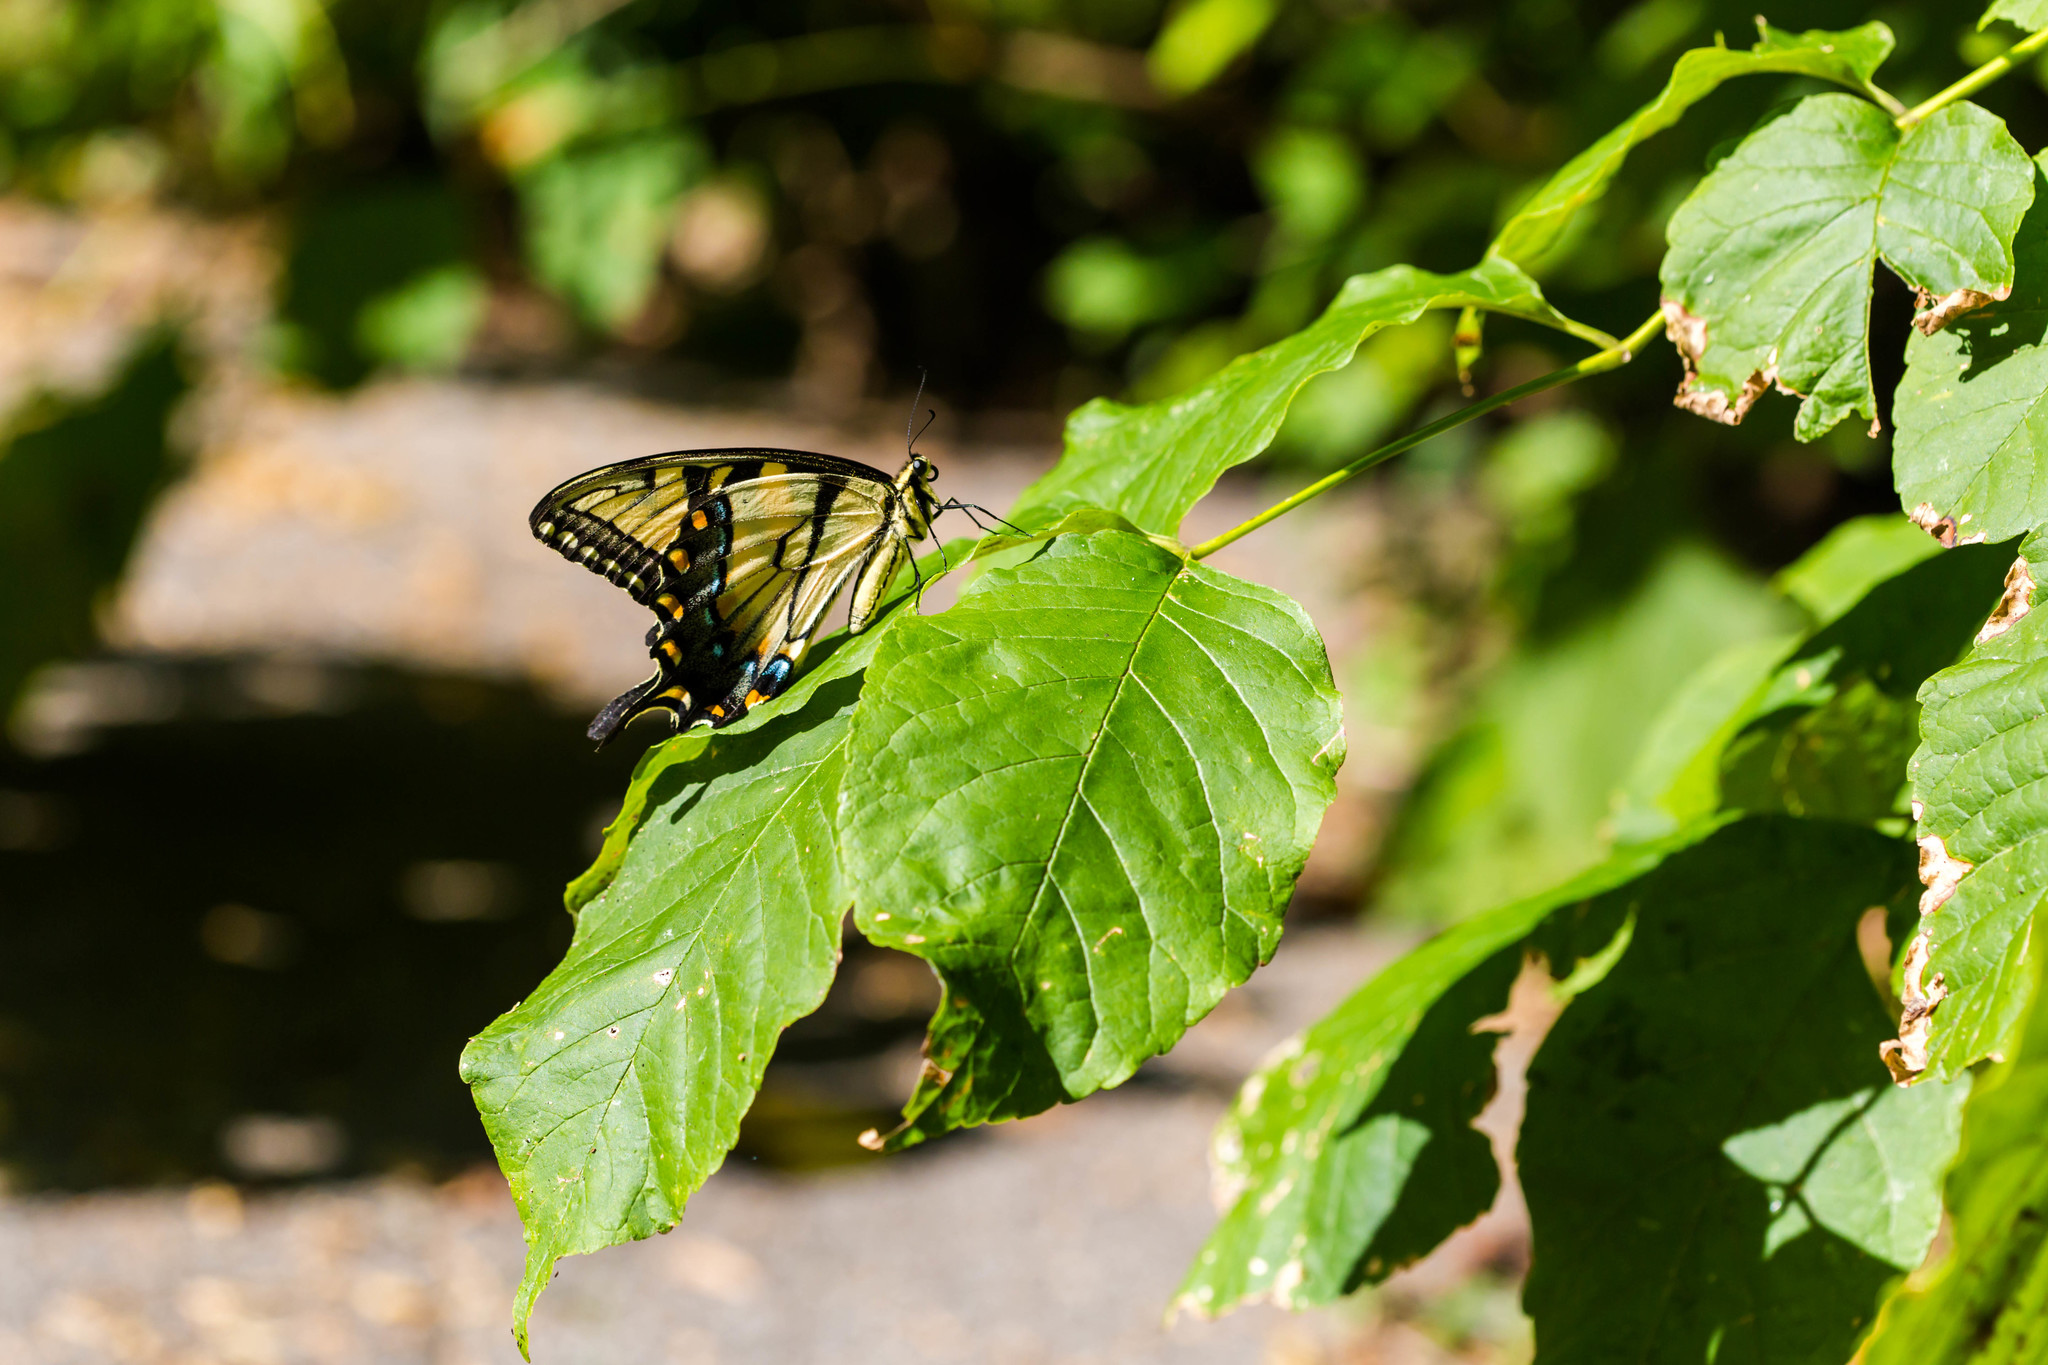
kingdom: Animalia
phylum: Arthropoda
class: Insecta
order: Lepidoptera
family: Papilionidae
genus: Papilio
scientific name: Papilio glaucus
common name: Tiger swallowtail
